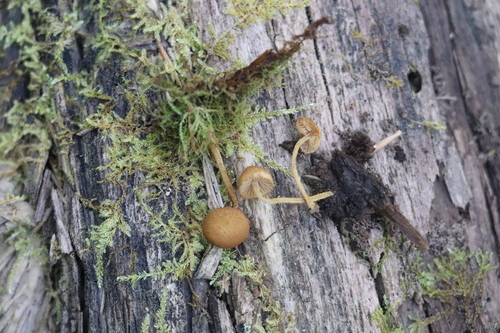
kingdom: Fungi
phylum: Basidiomycota
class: Agaricomycetes
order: Agaricales
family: Tubariaceae
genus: Flammulaster
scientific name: Flammulaster muricatus
